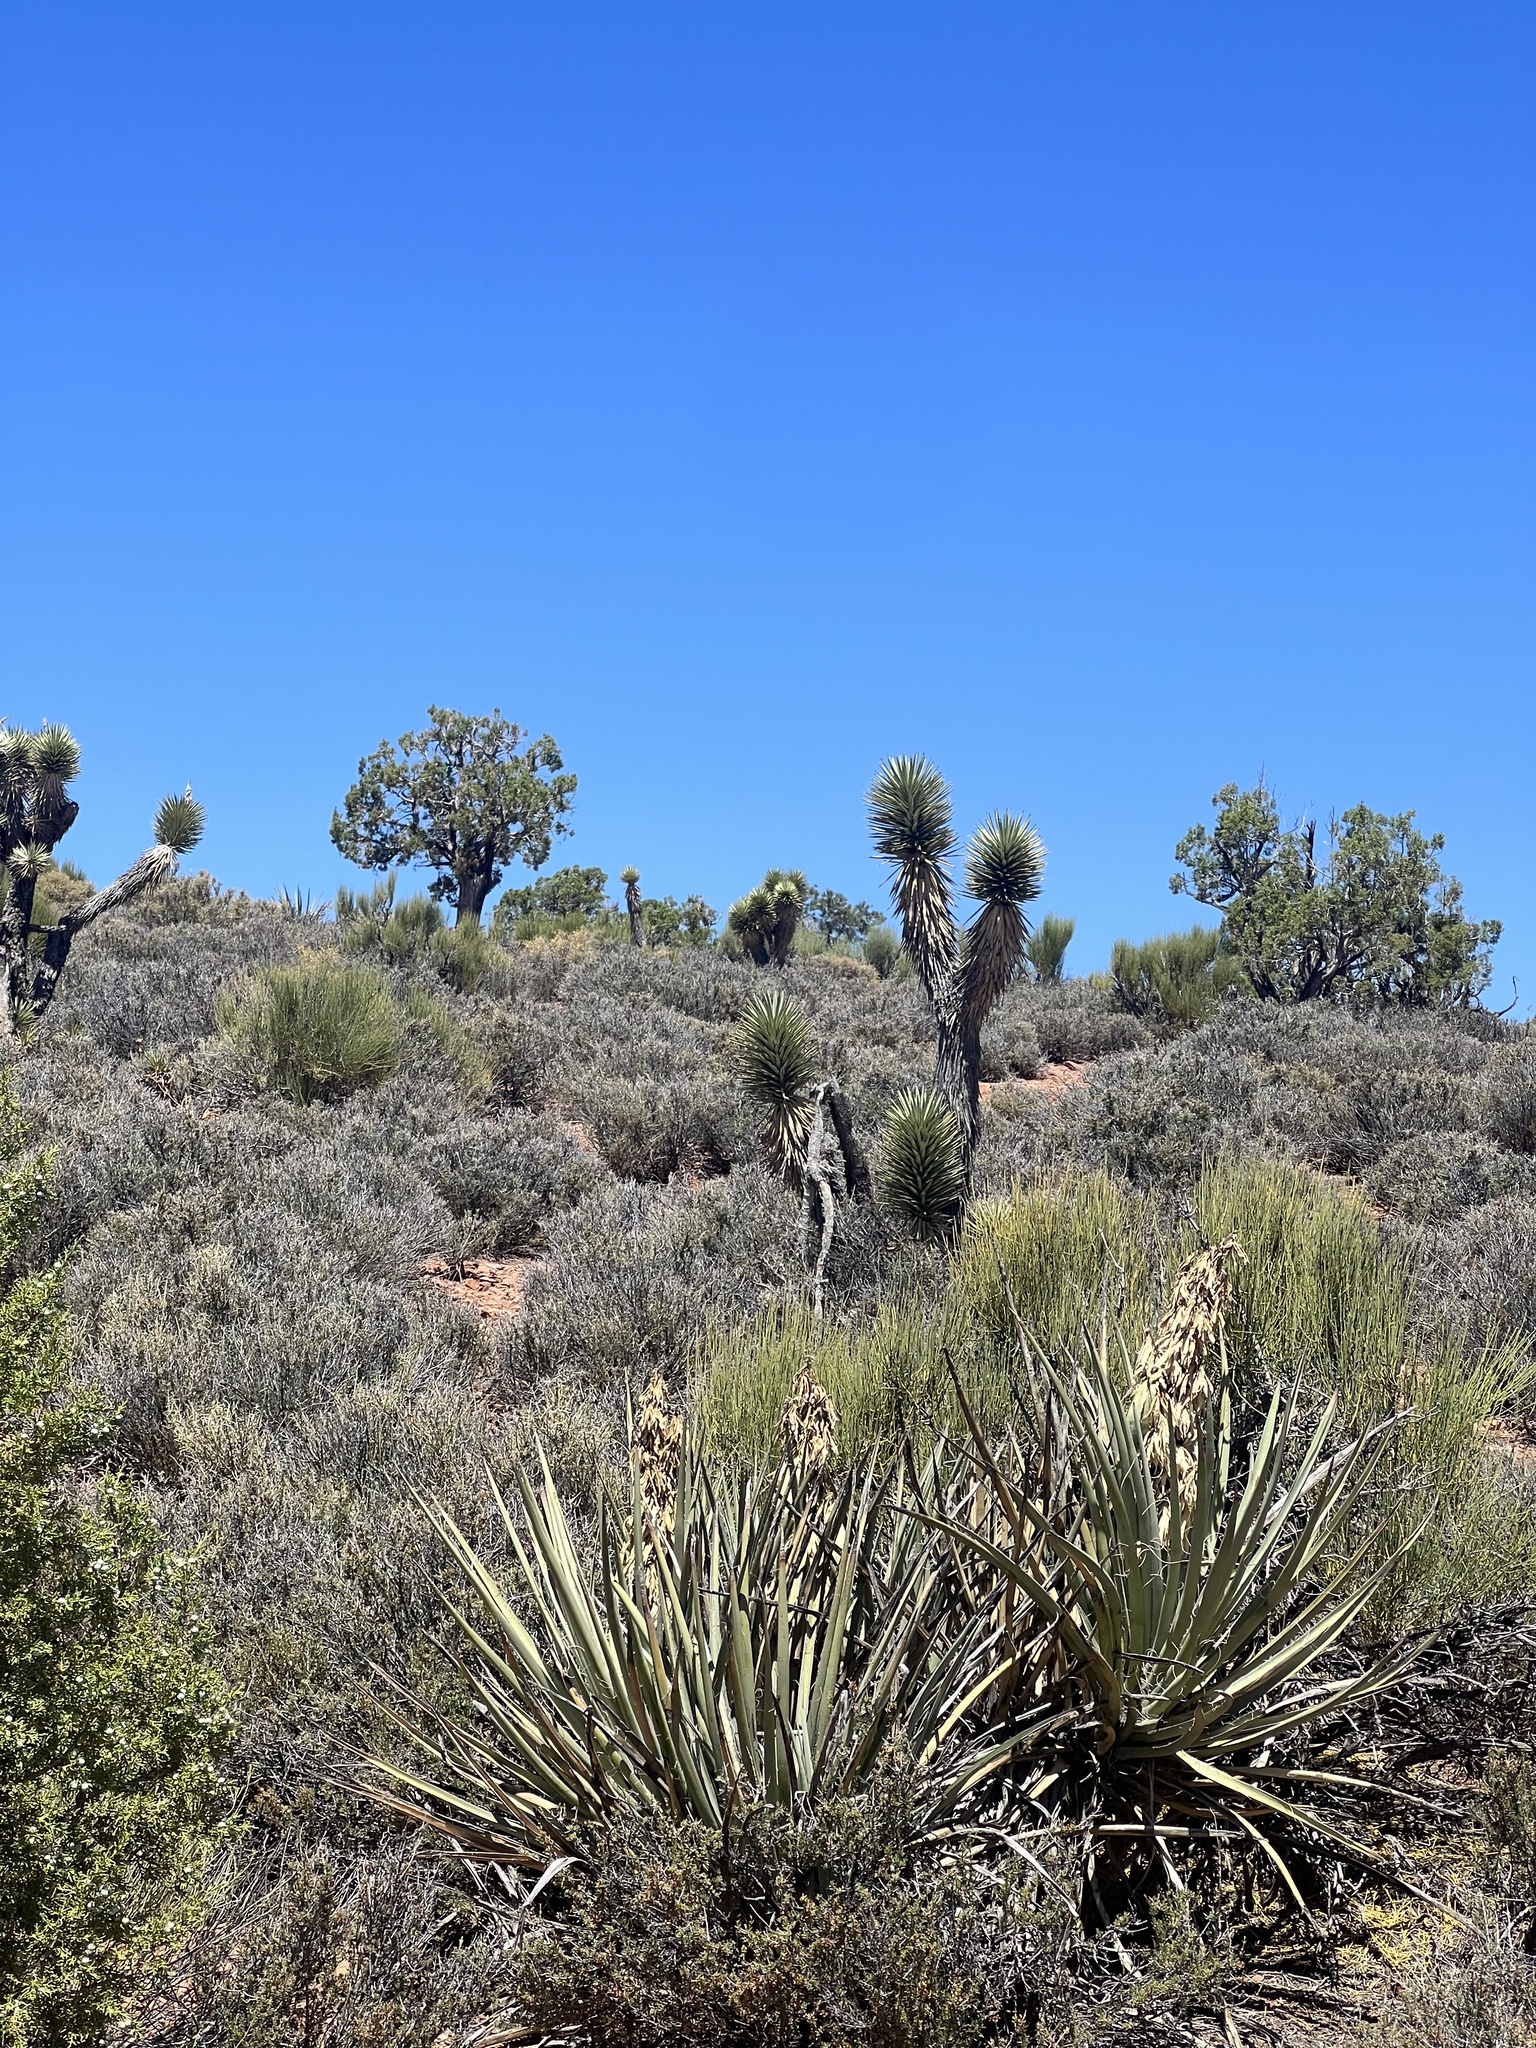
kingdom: Plantae
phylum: Tracheophyta
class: Liliopsida
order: Asparagales
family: Asparagaceae
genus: Yucca
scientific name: Yucca brevifolia
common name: Joshua tree
